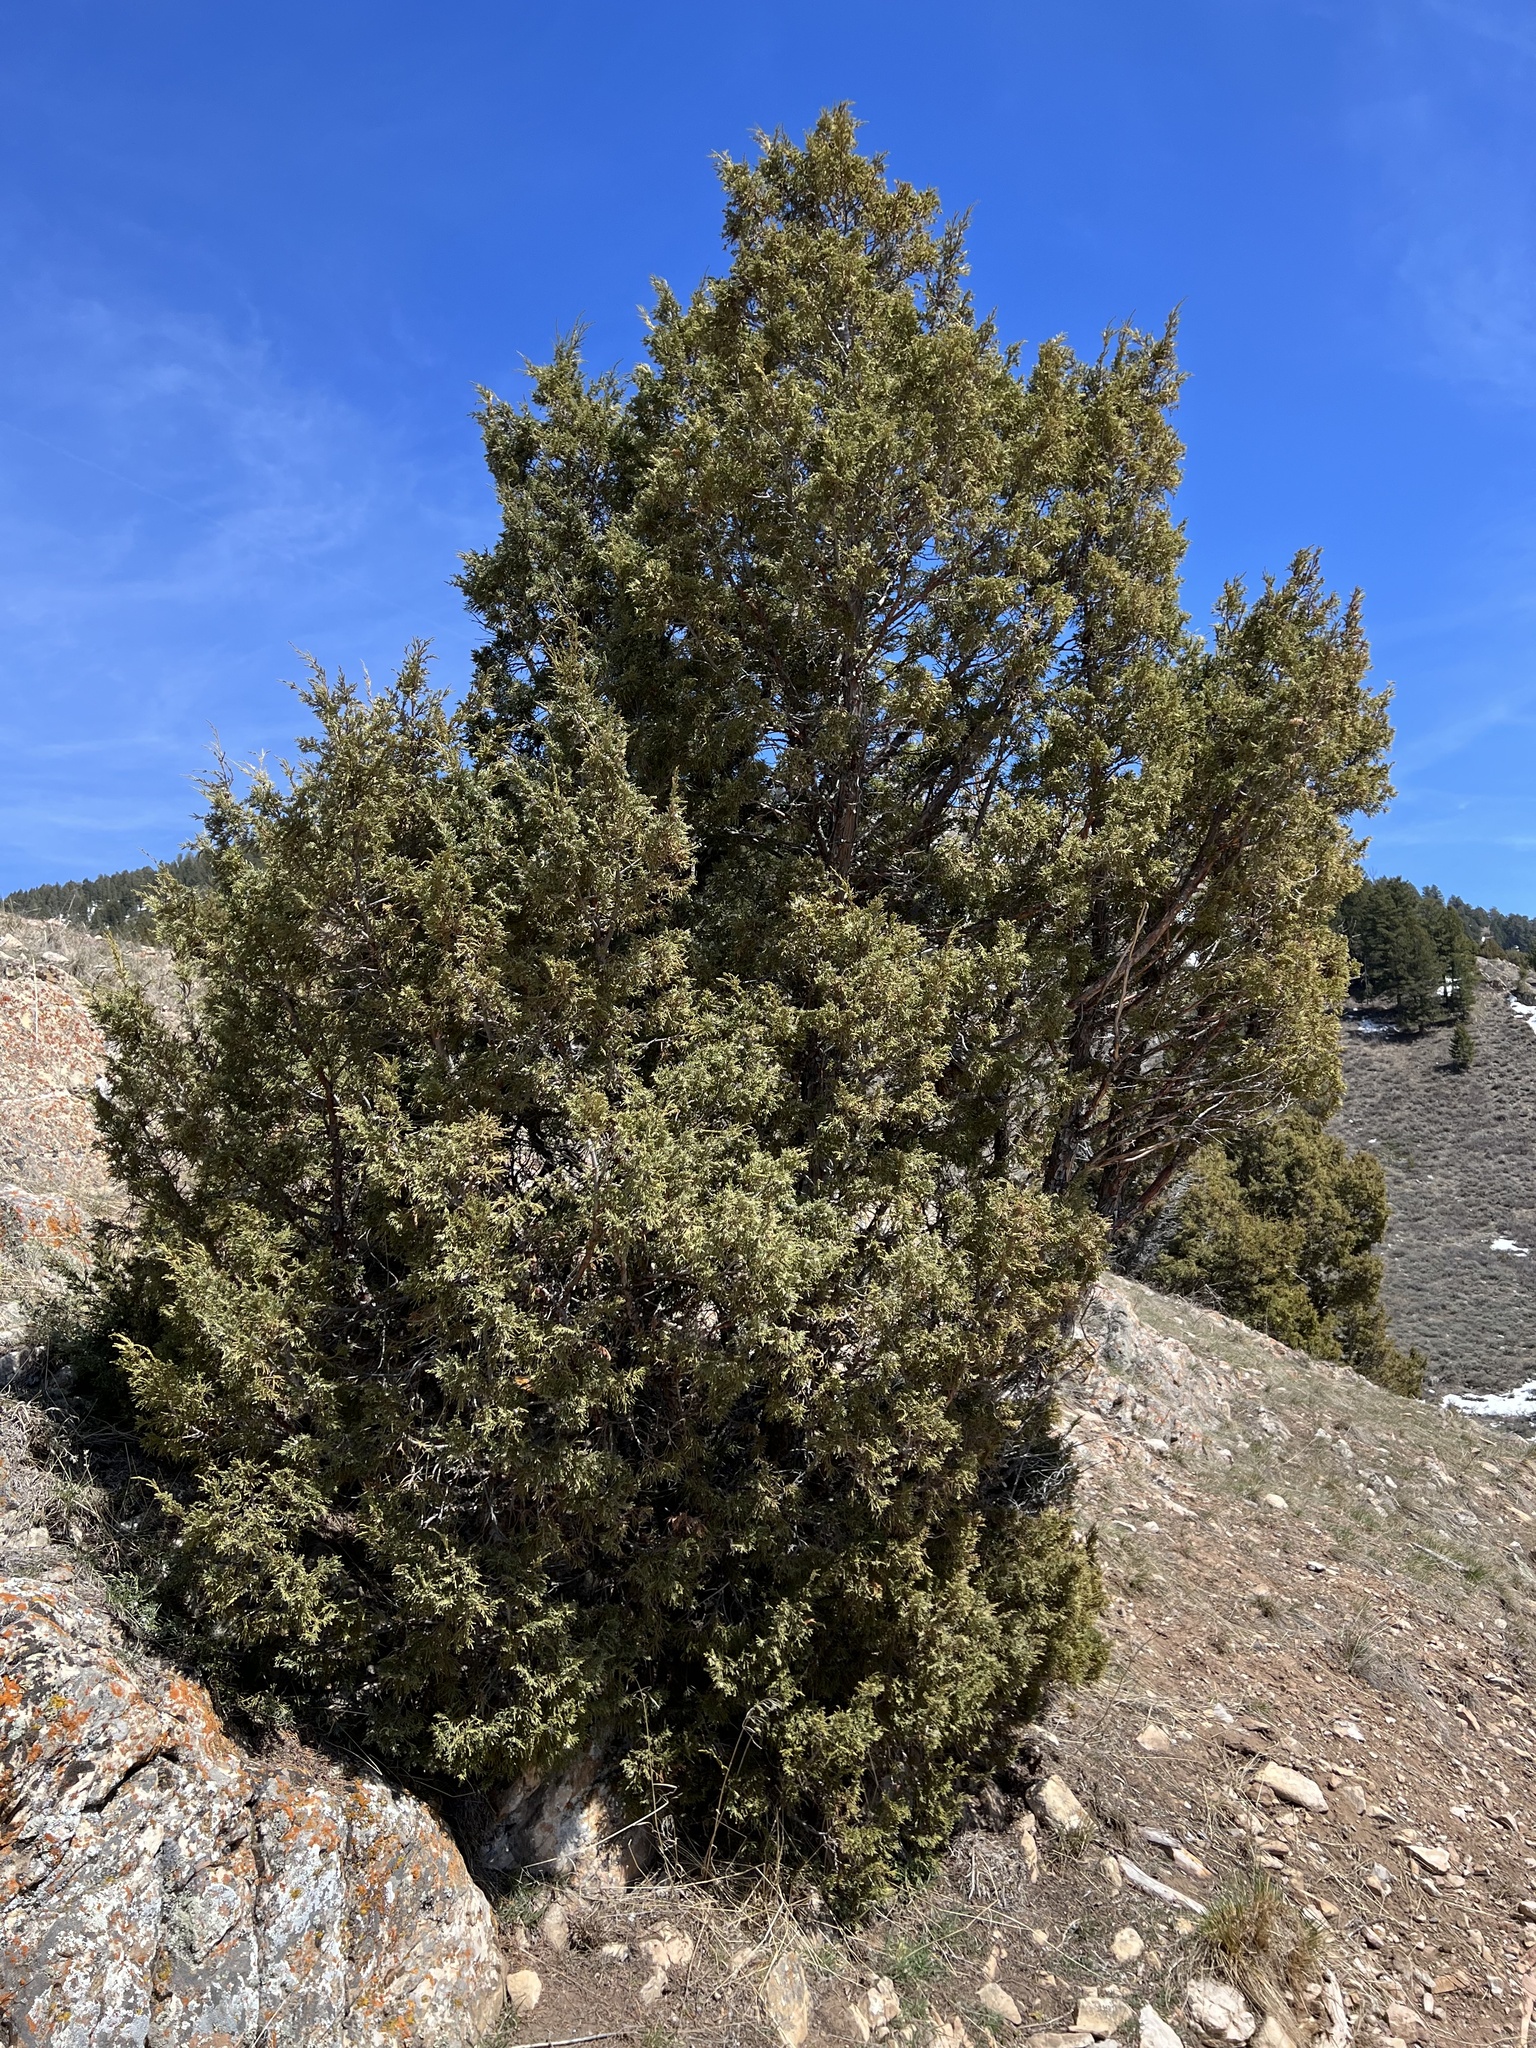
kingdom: Plantae
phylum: Tracheophyta
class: Pinopsida
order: Pinales
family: Cupressaceae
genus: Juniperus
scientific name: Juniperus scopulorum
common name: Rocky mountain juniper
